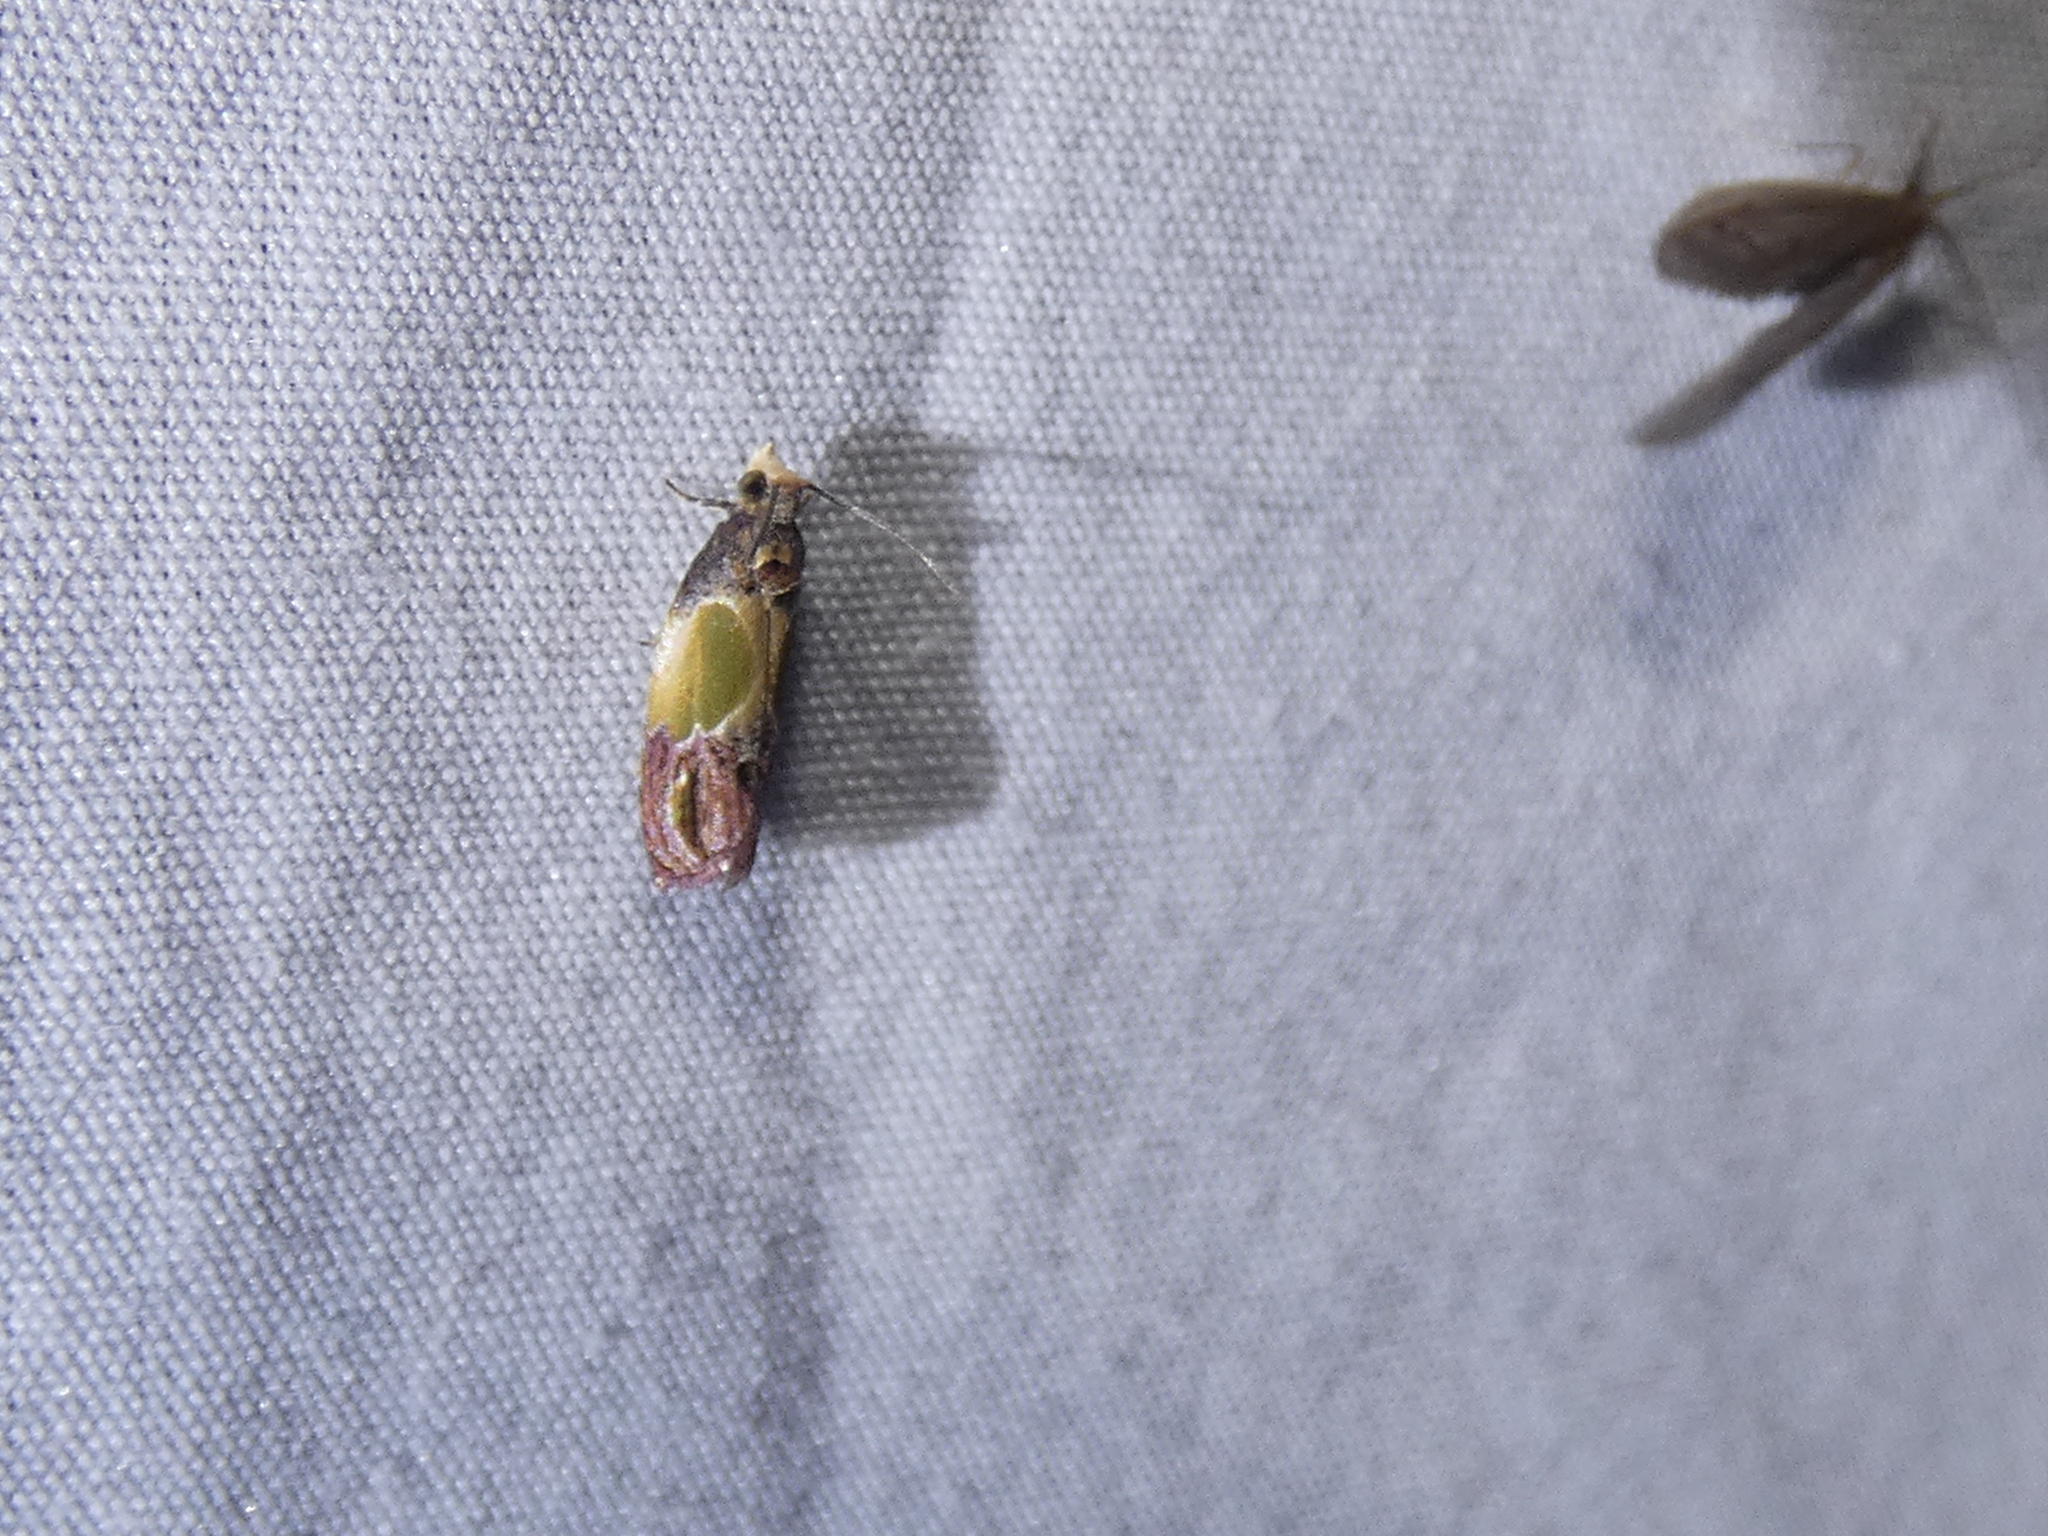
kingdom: Animalia
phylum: Arthropoda
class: Insecta
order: Lepidoptera
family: Tortricidae
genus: Eumarozia
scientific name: Eumarozia malachitana
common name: Sculptured moth
